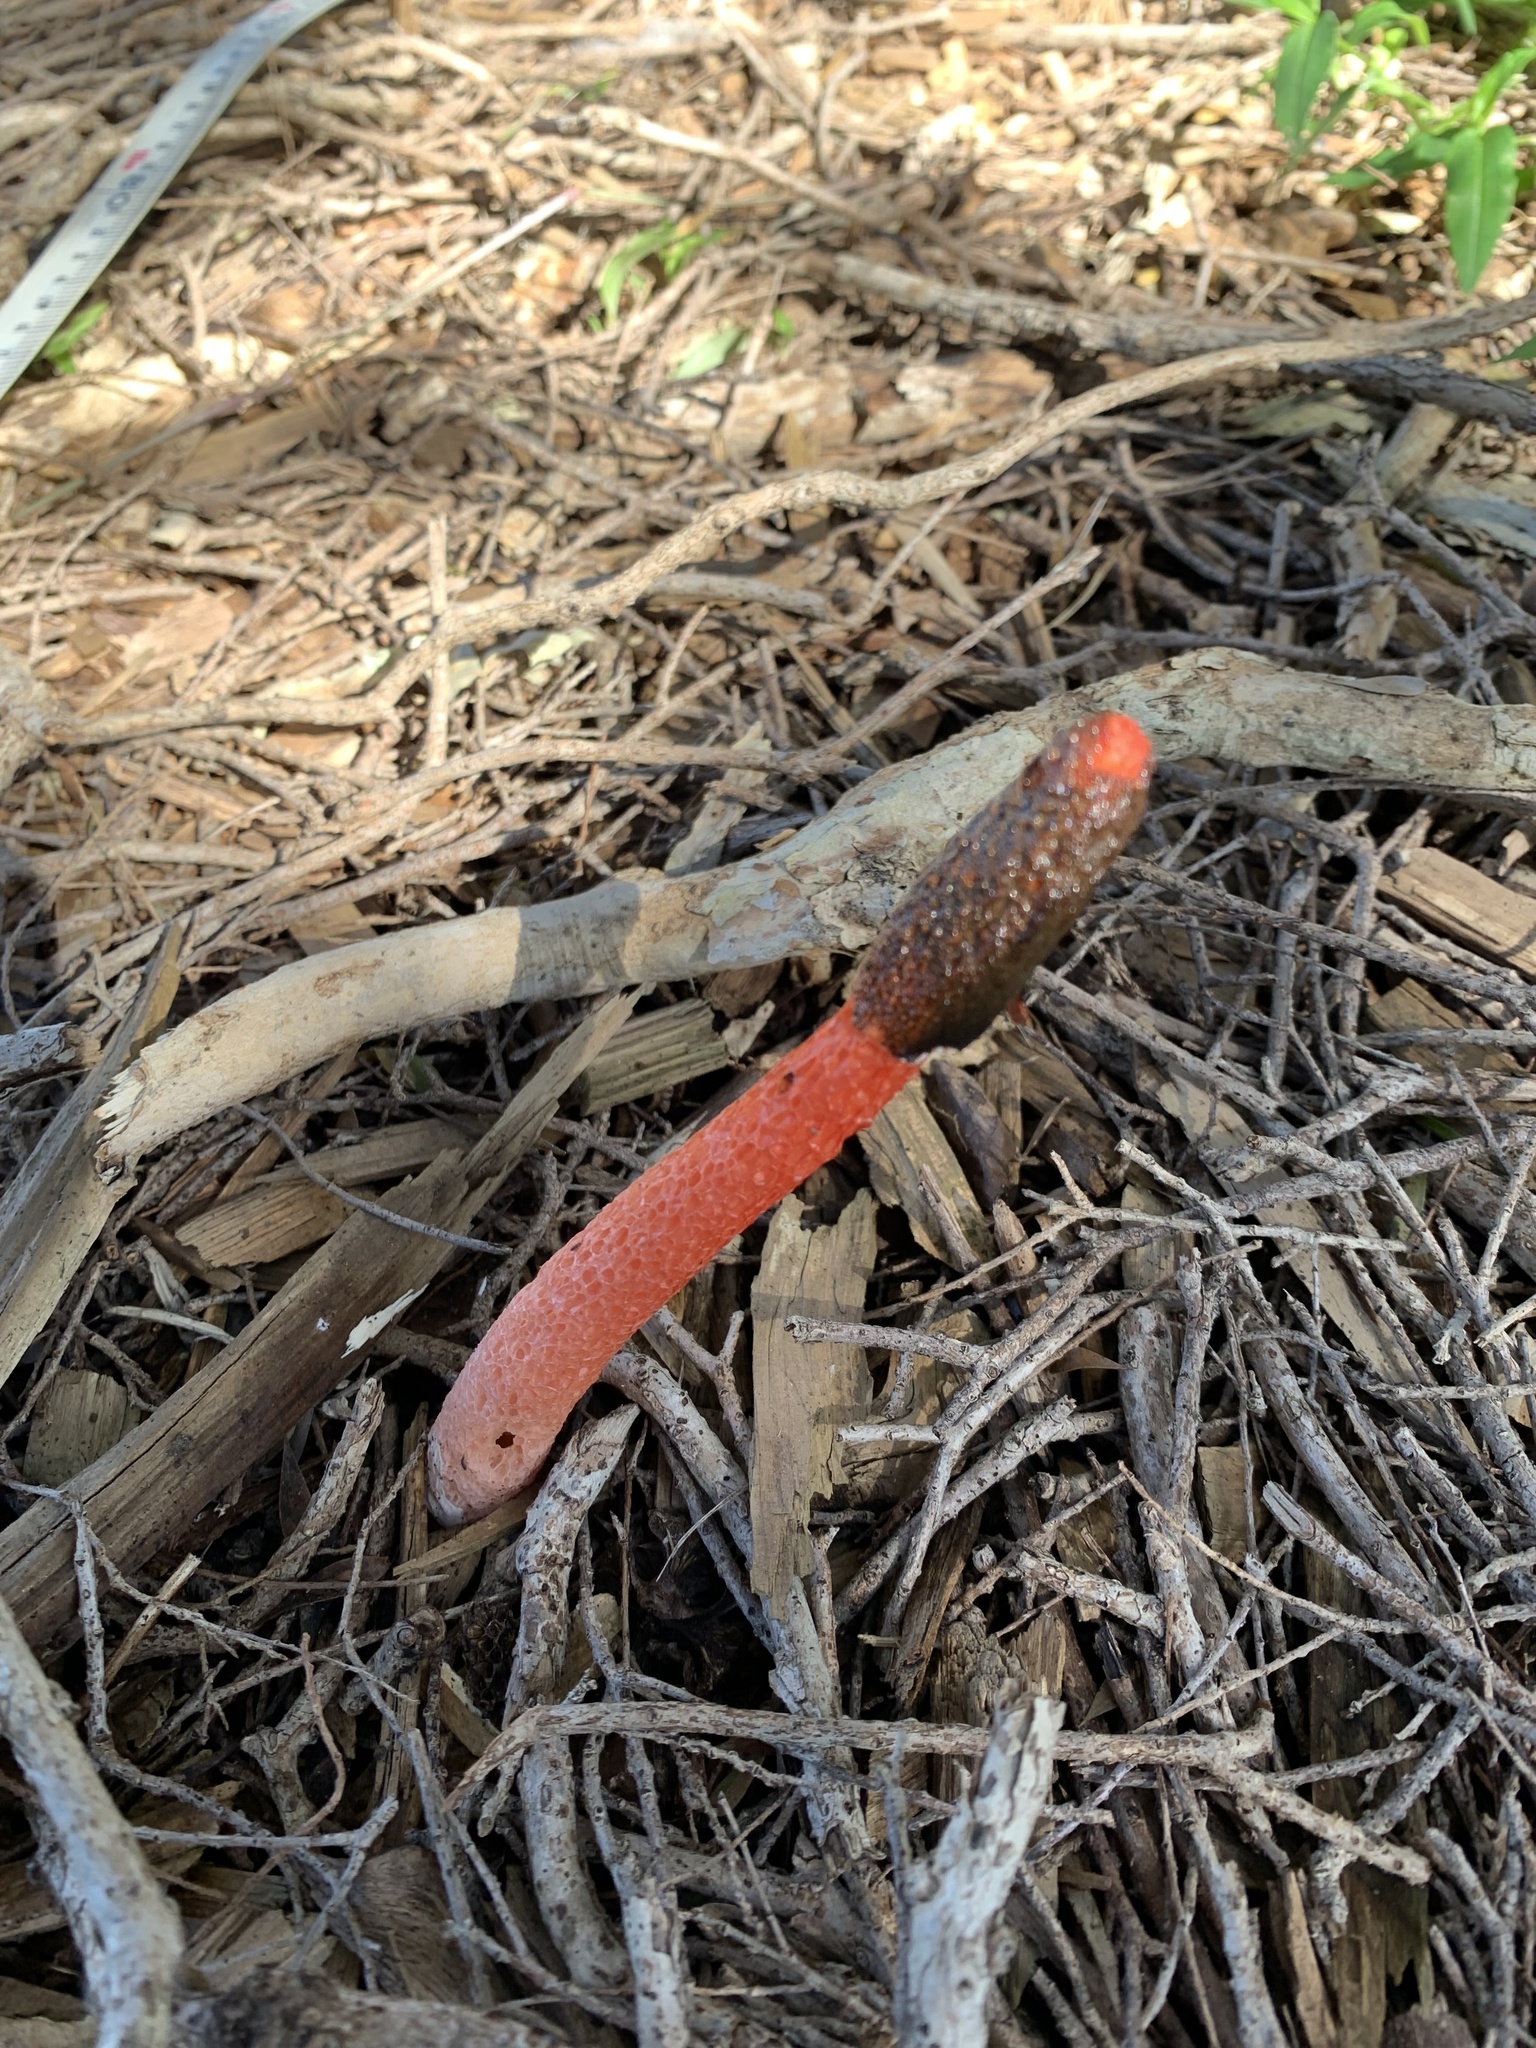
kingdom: Fungi
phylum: Basidiomycota
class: Agaricomycetes
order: Phallales
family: Phallaceae
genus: Phallus
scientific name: Phallus rubicundus
